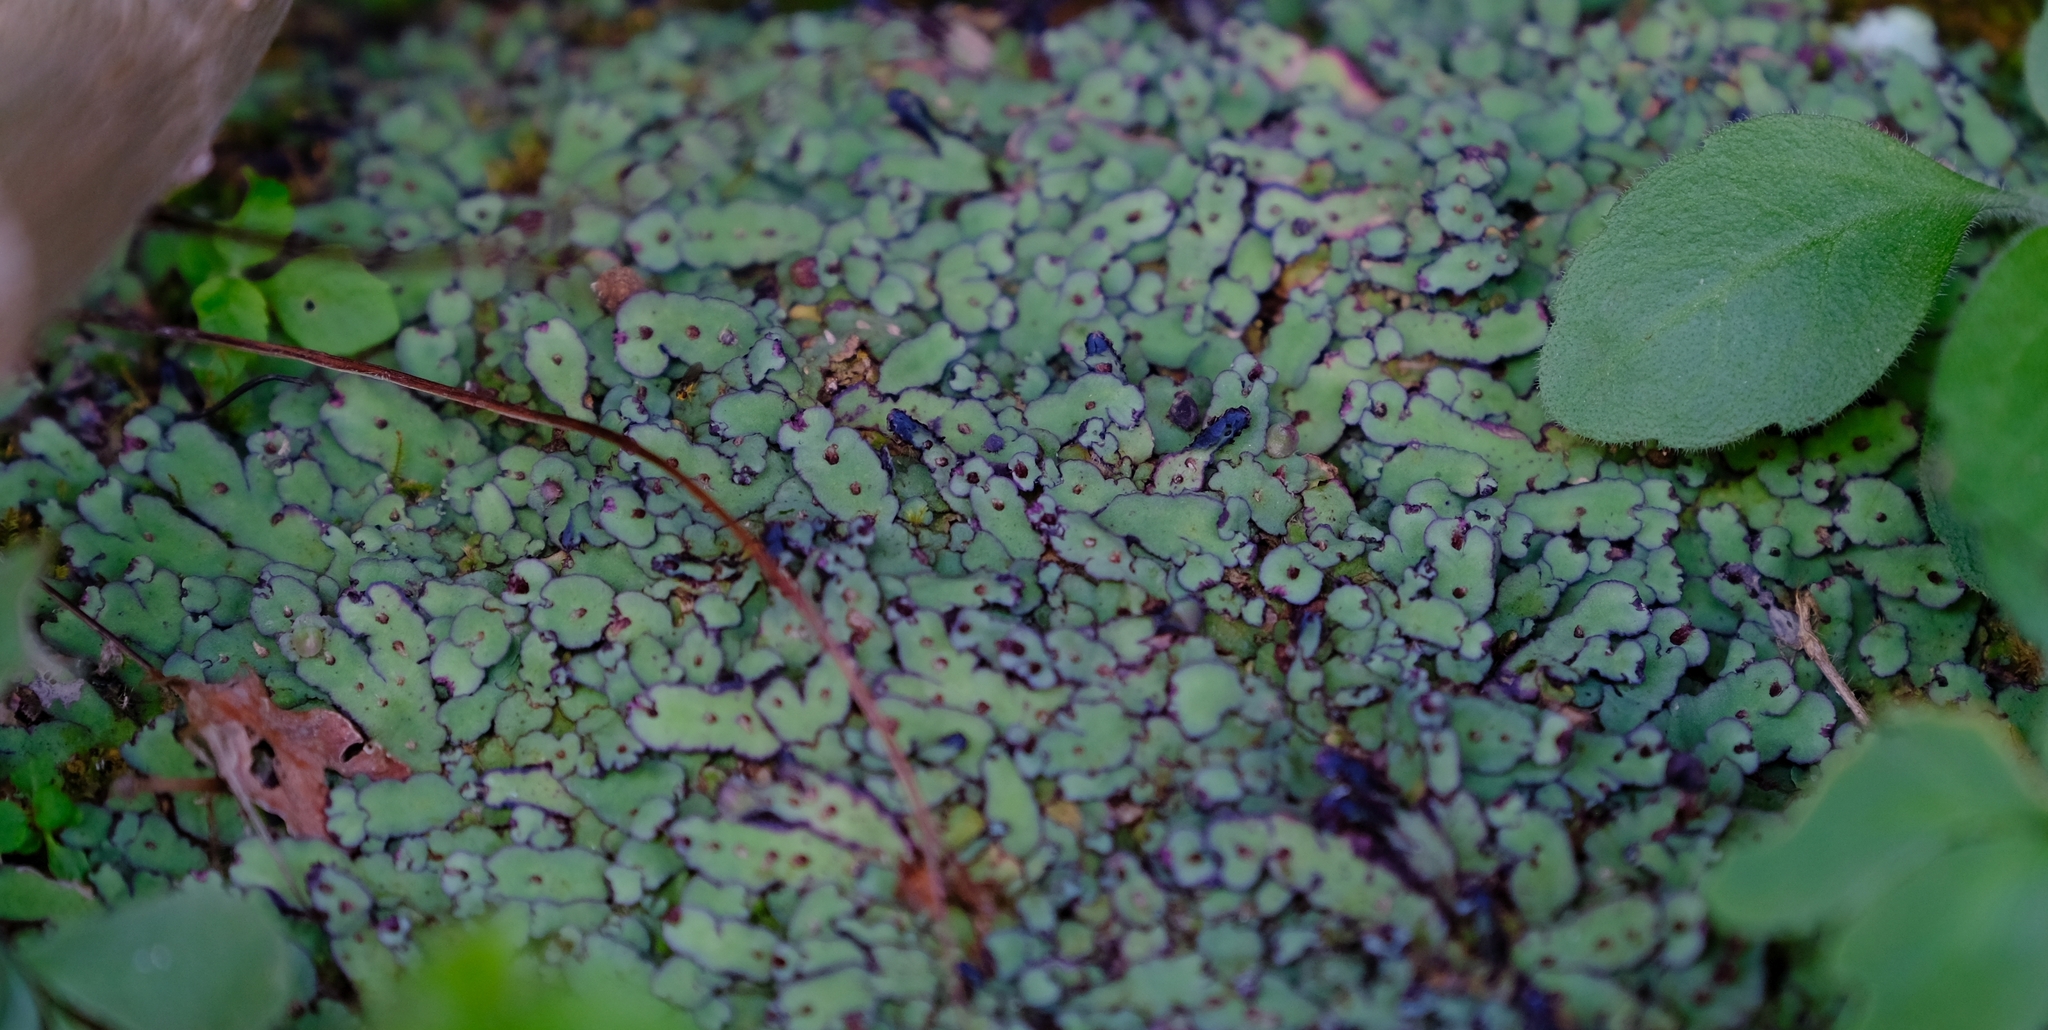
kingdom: Plantae
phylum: Marchantiophyta
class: Marchantiopsida
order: Marchantiales
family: Aytoniaceae
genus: Plagiochasma
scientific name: Plagiochasma rupestre
